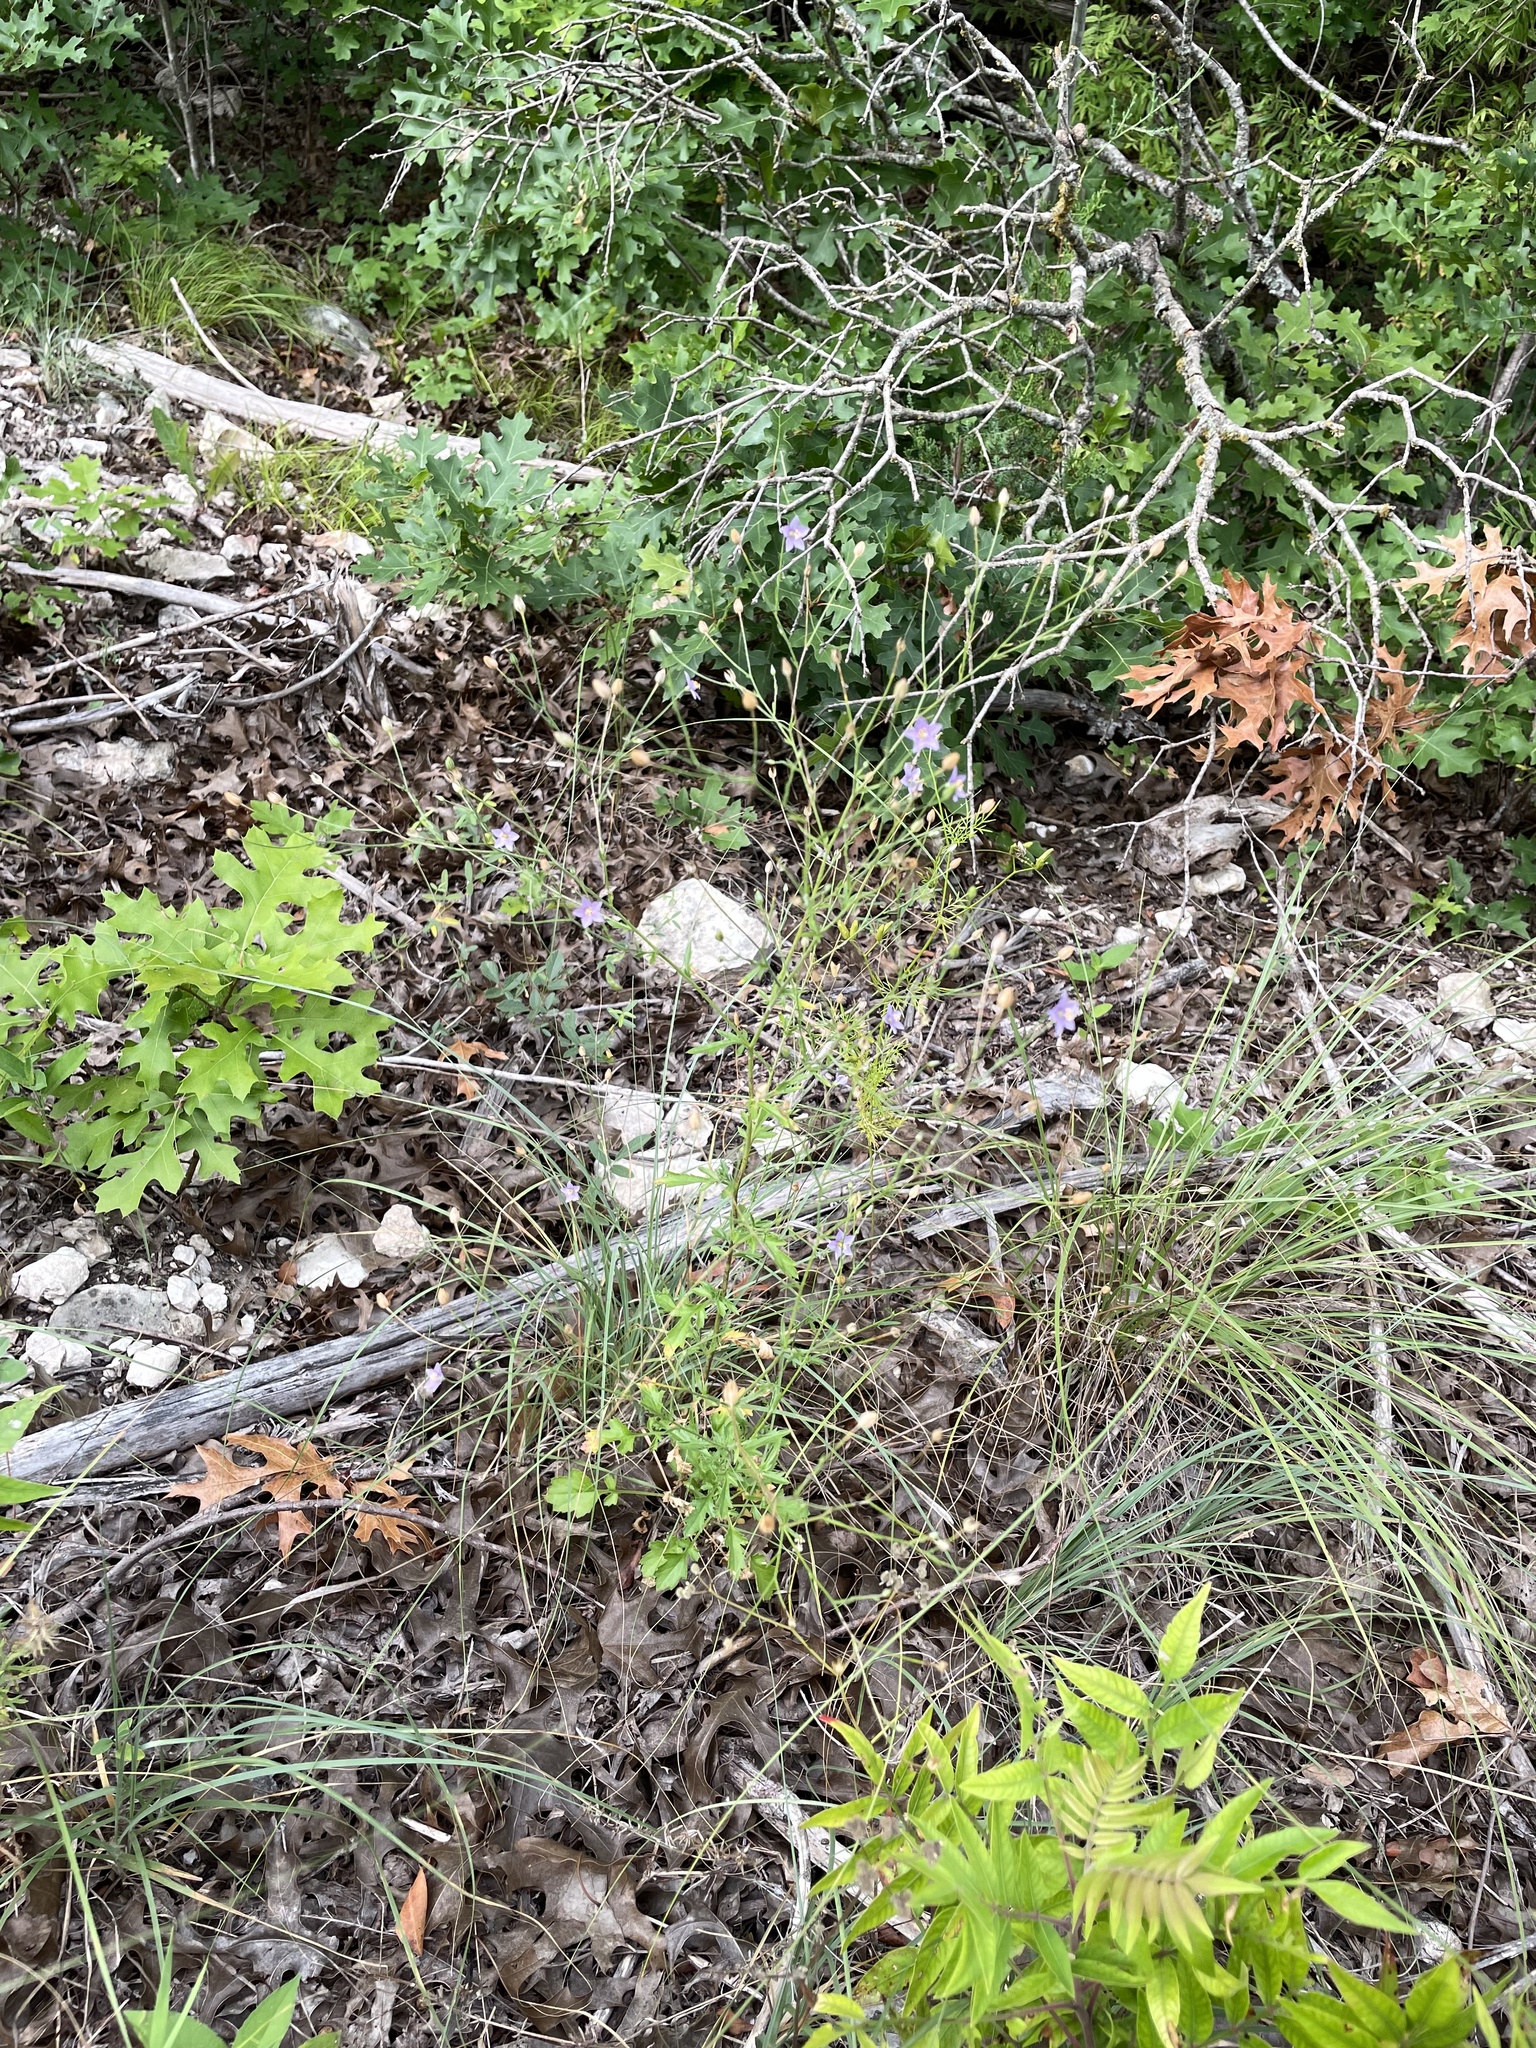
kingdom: Plantae
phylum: Tracheophyta
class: Magnoliopsida
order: Ericales
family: Polemoniaceae
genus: Giliastrum
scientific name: Giliastrum incisum
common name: Splitleaf gilia
